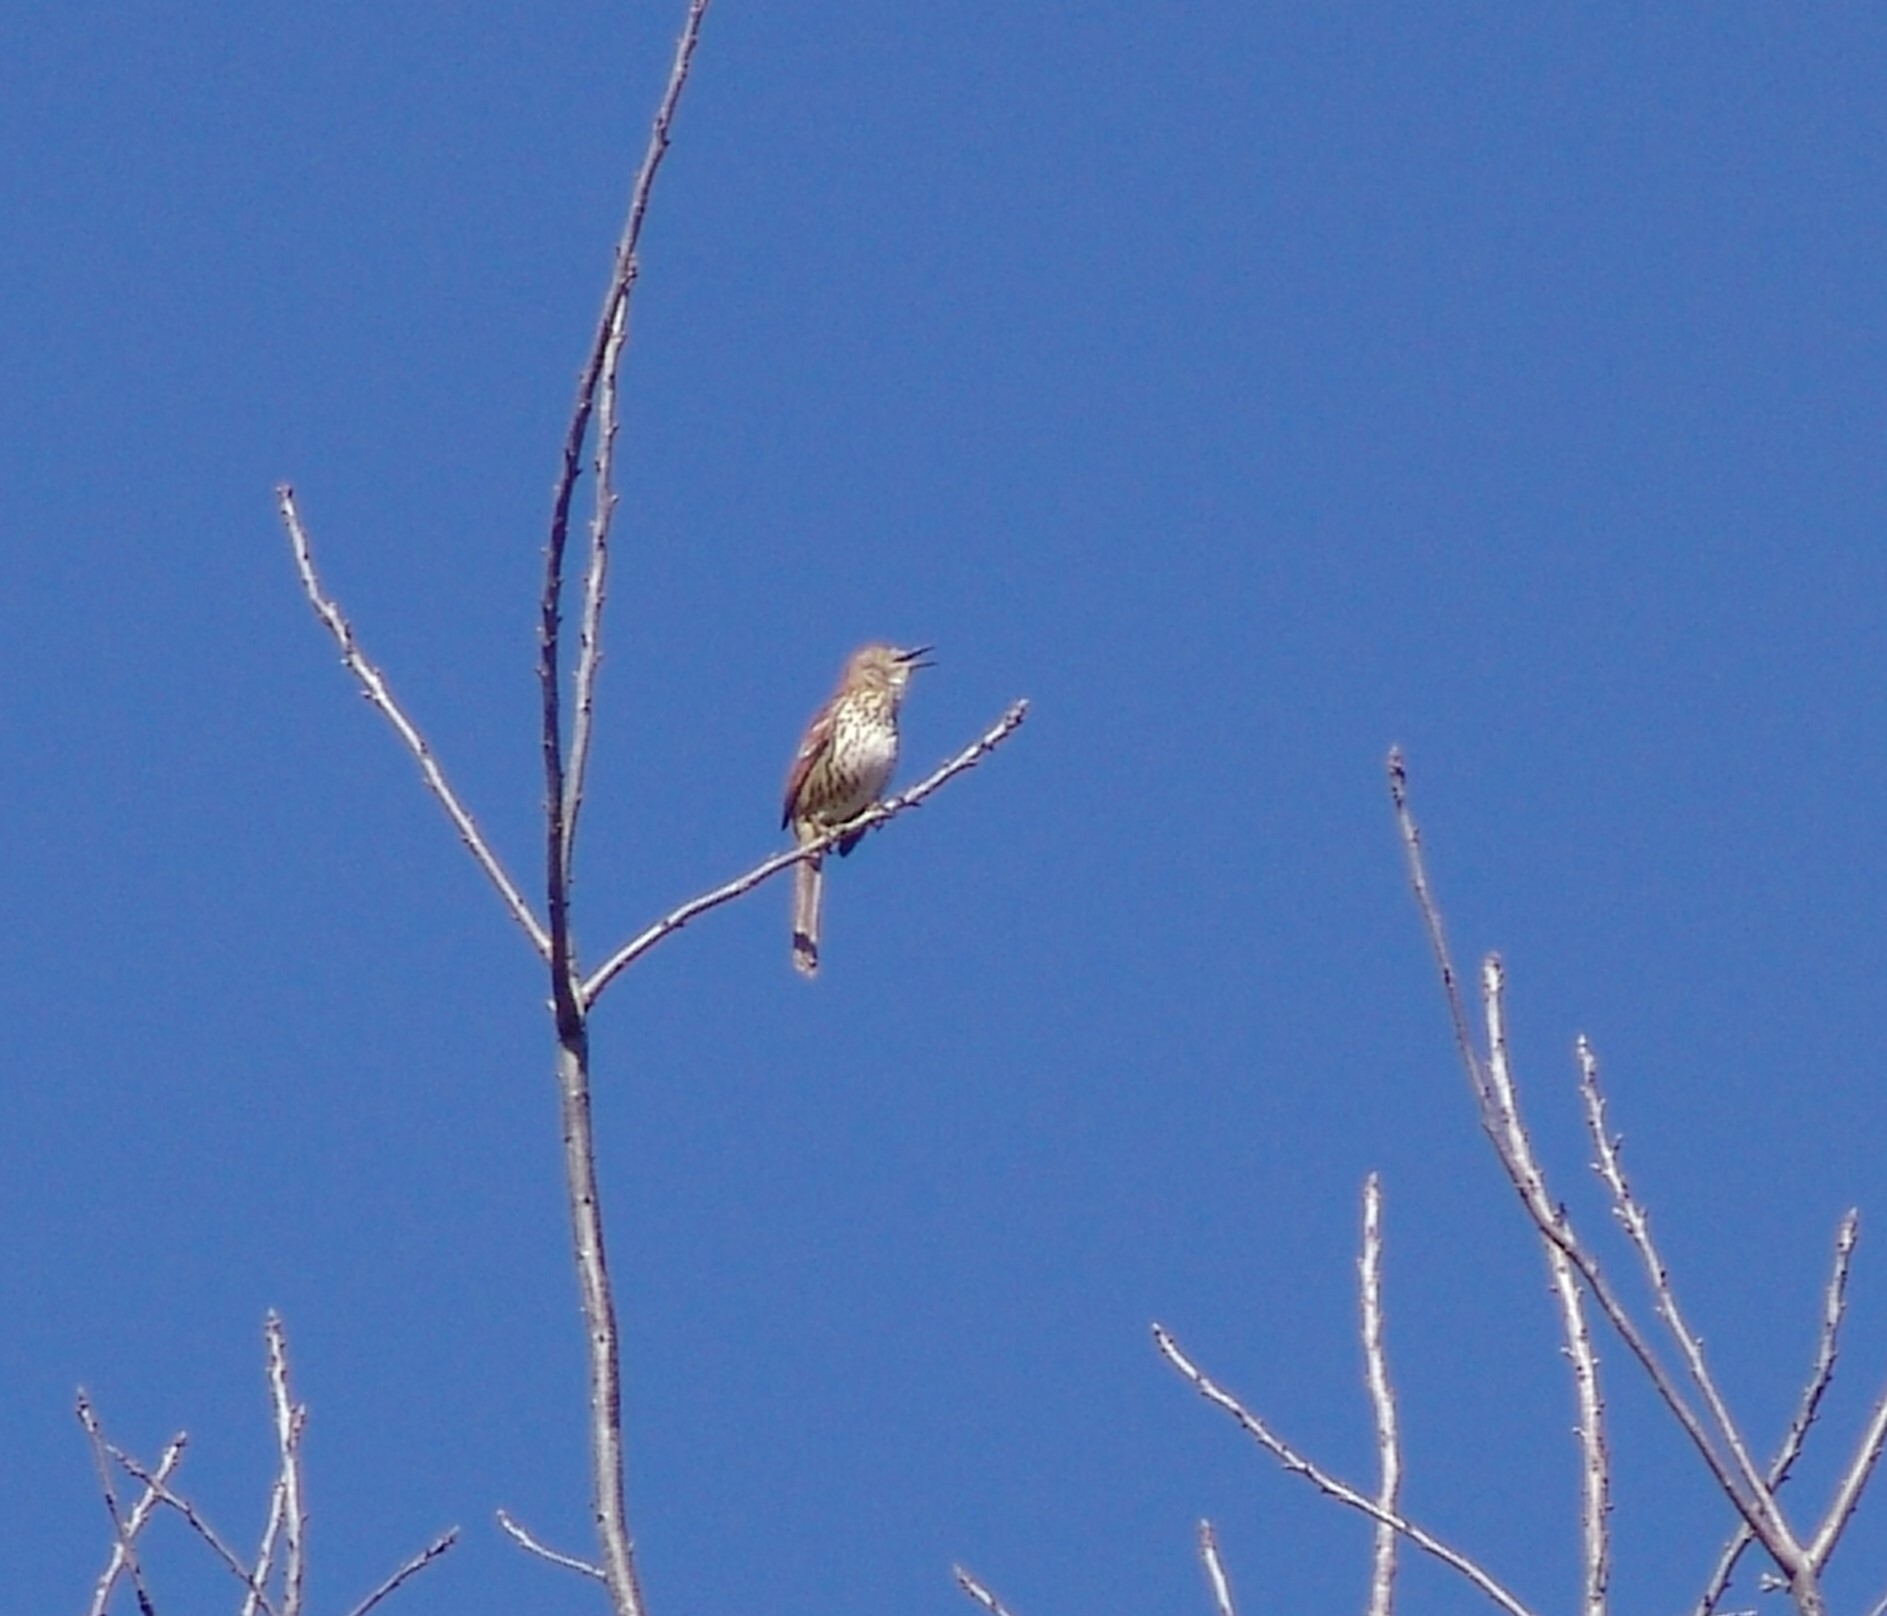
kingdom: Animalia
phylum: Chordata
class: Aves
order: Passeriformes
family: Mimidae
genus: Toxostoma
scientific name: Toxostoma rufum
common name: Brown thrasher
